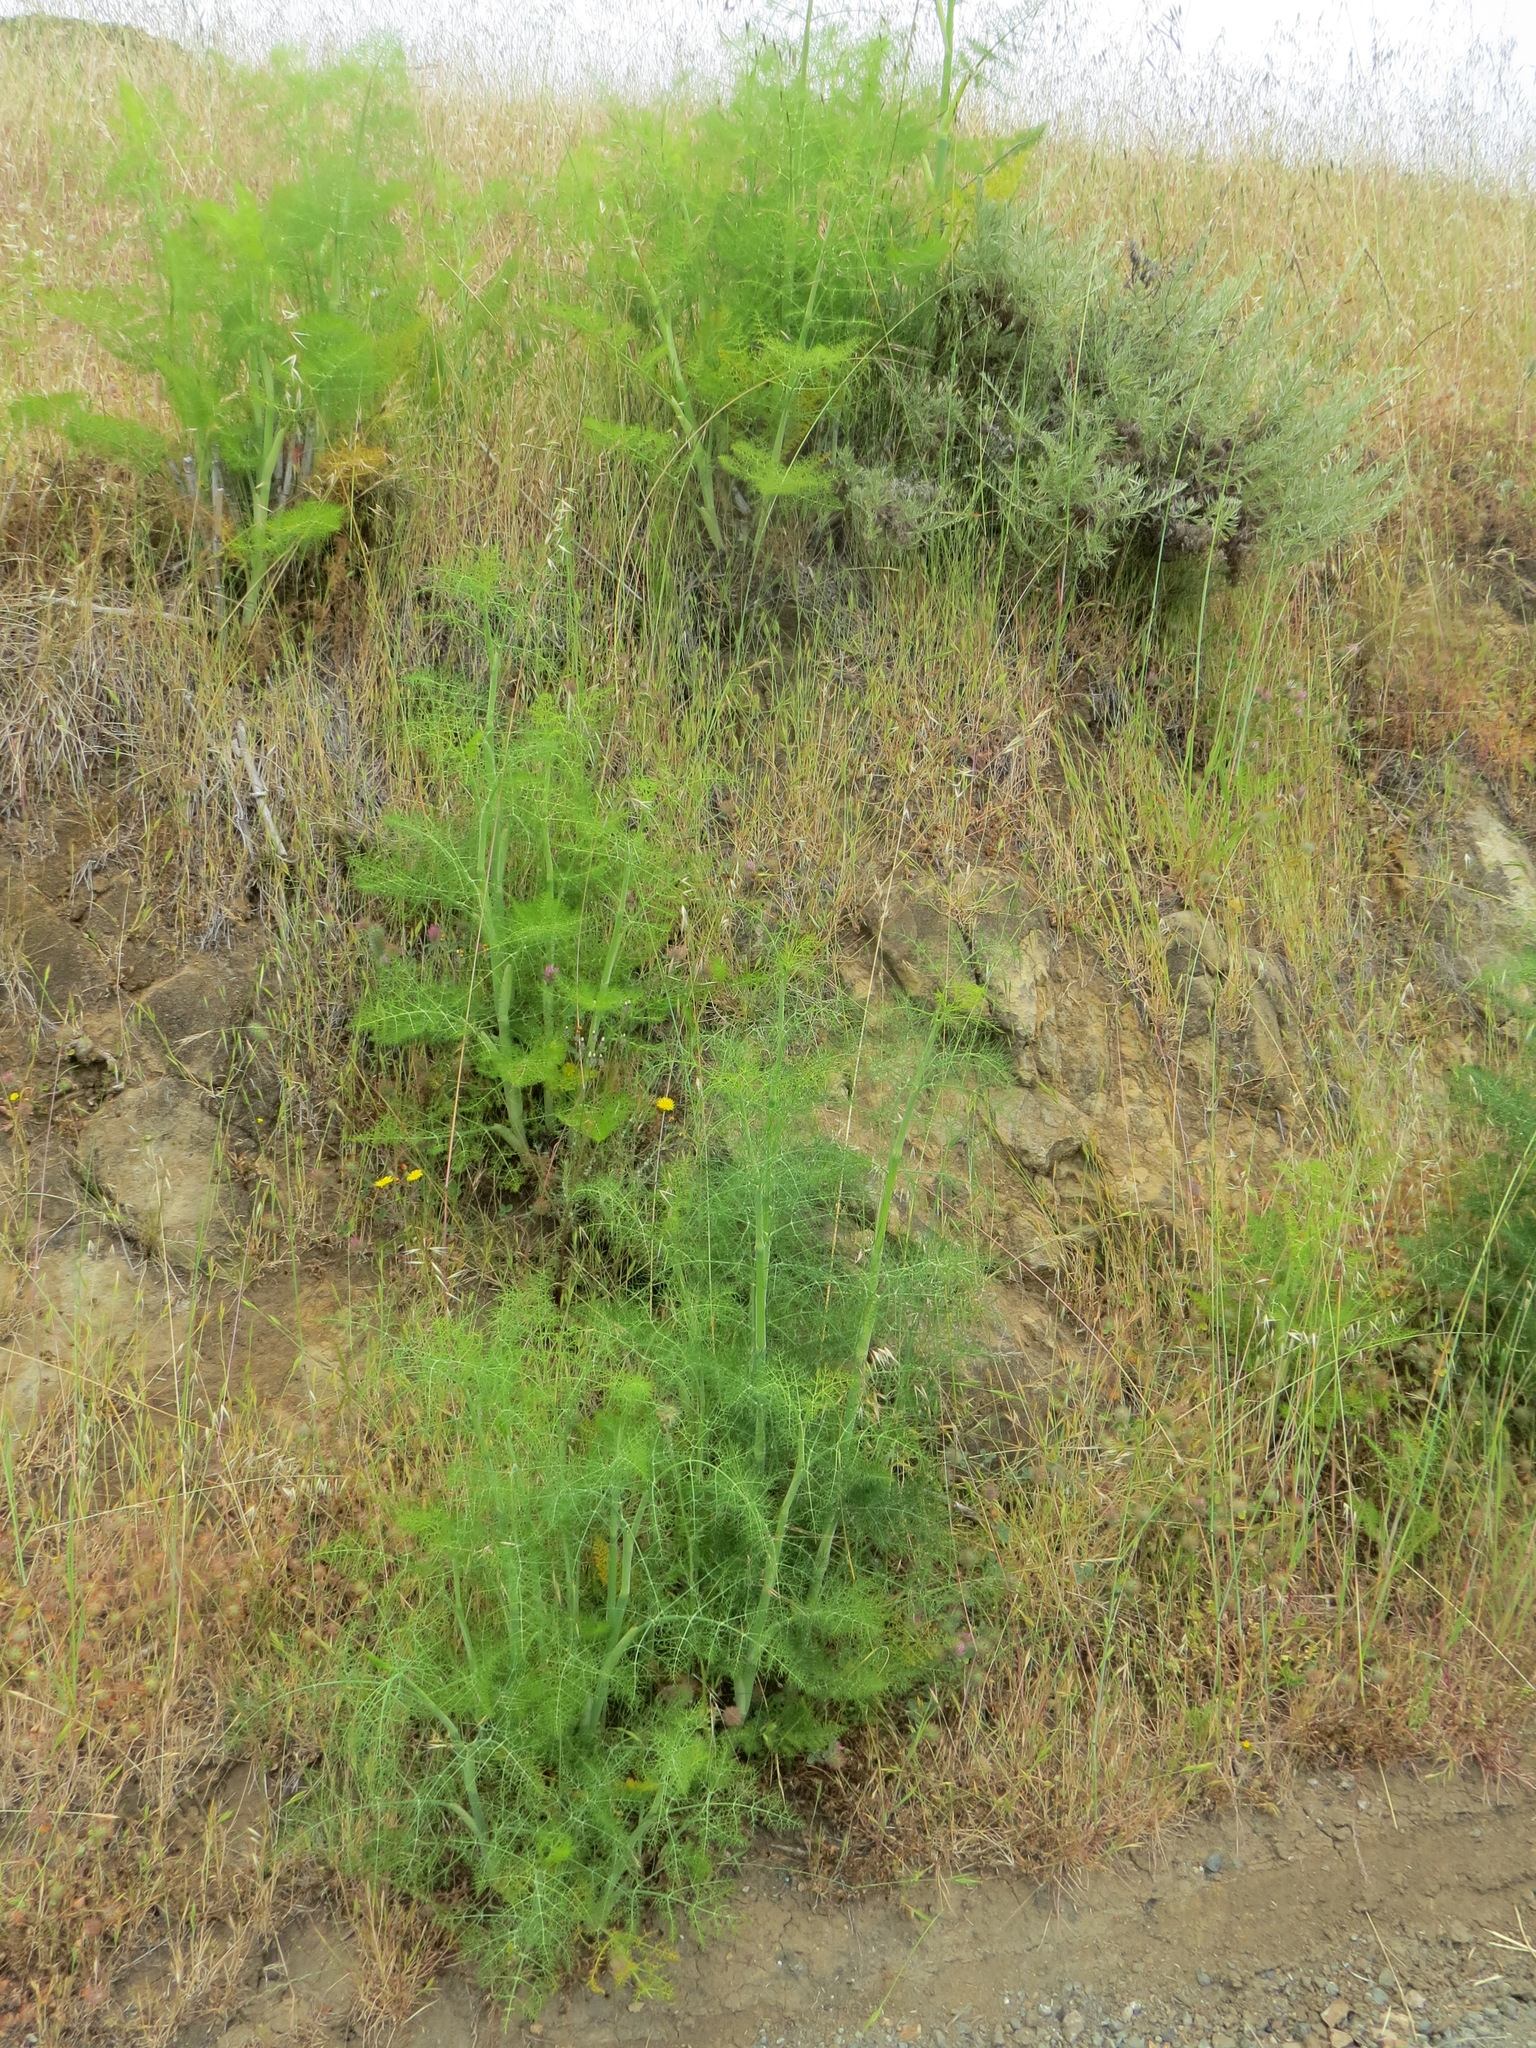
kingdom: Plantae
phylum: Tracheophyta
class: Magnoliopsida
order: Apiales
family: Apiaceae
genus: Foeniculum
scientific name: Foeniculum vulgare
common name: Fennel
